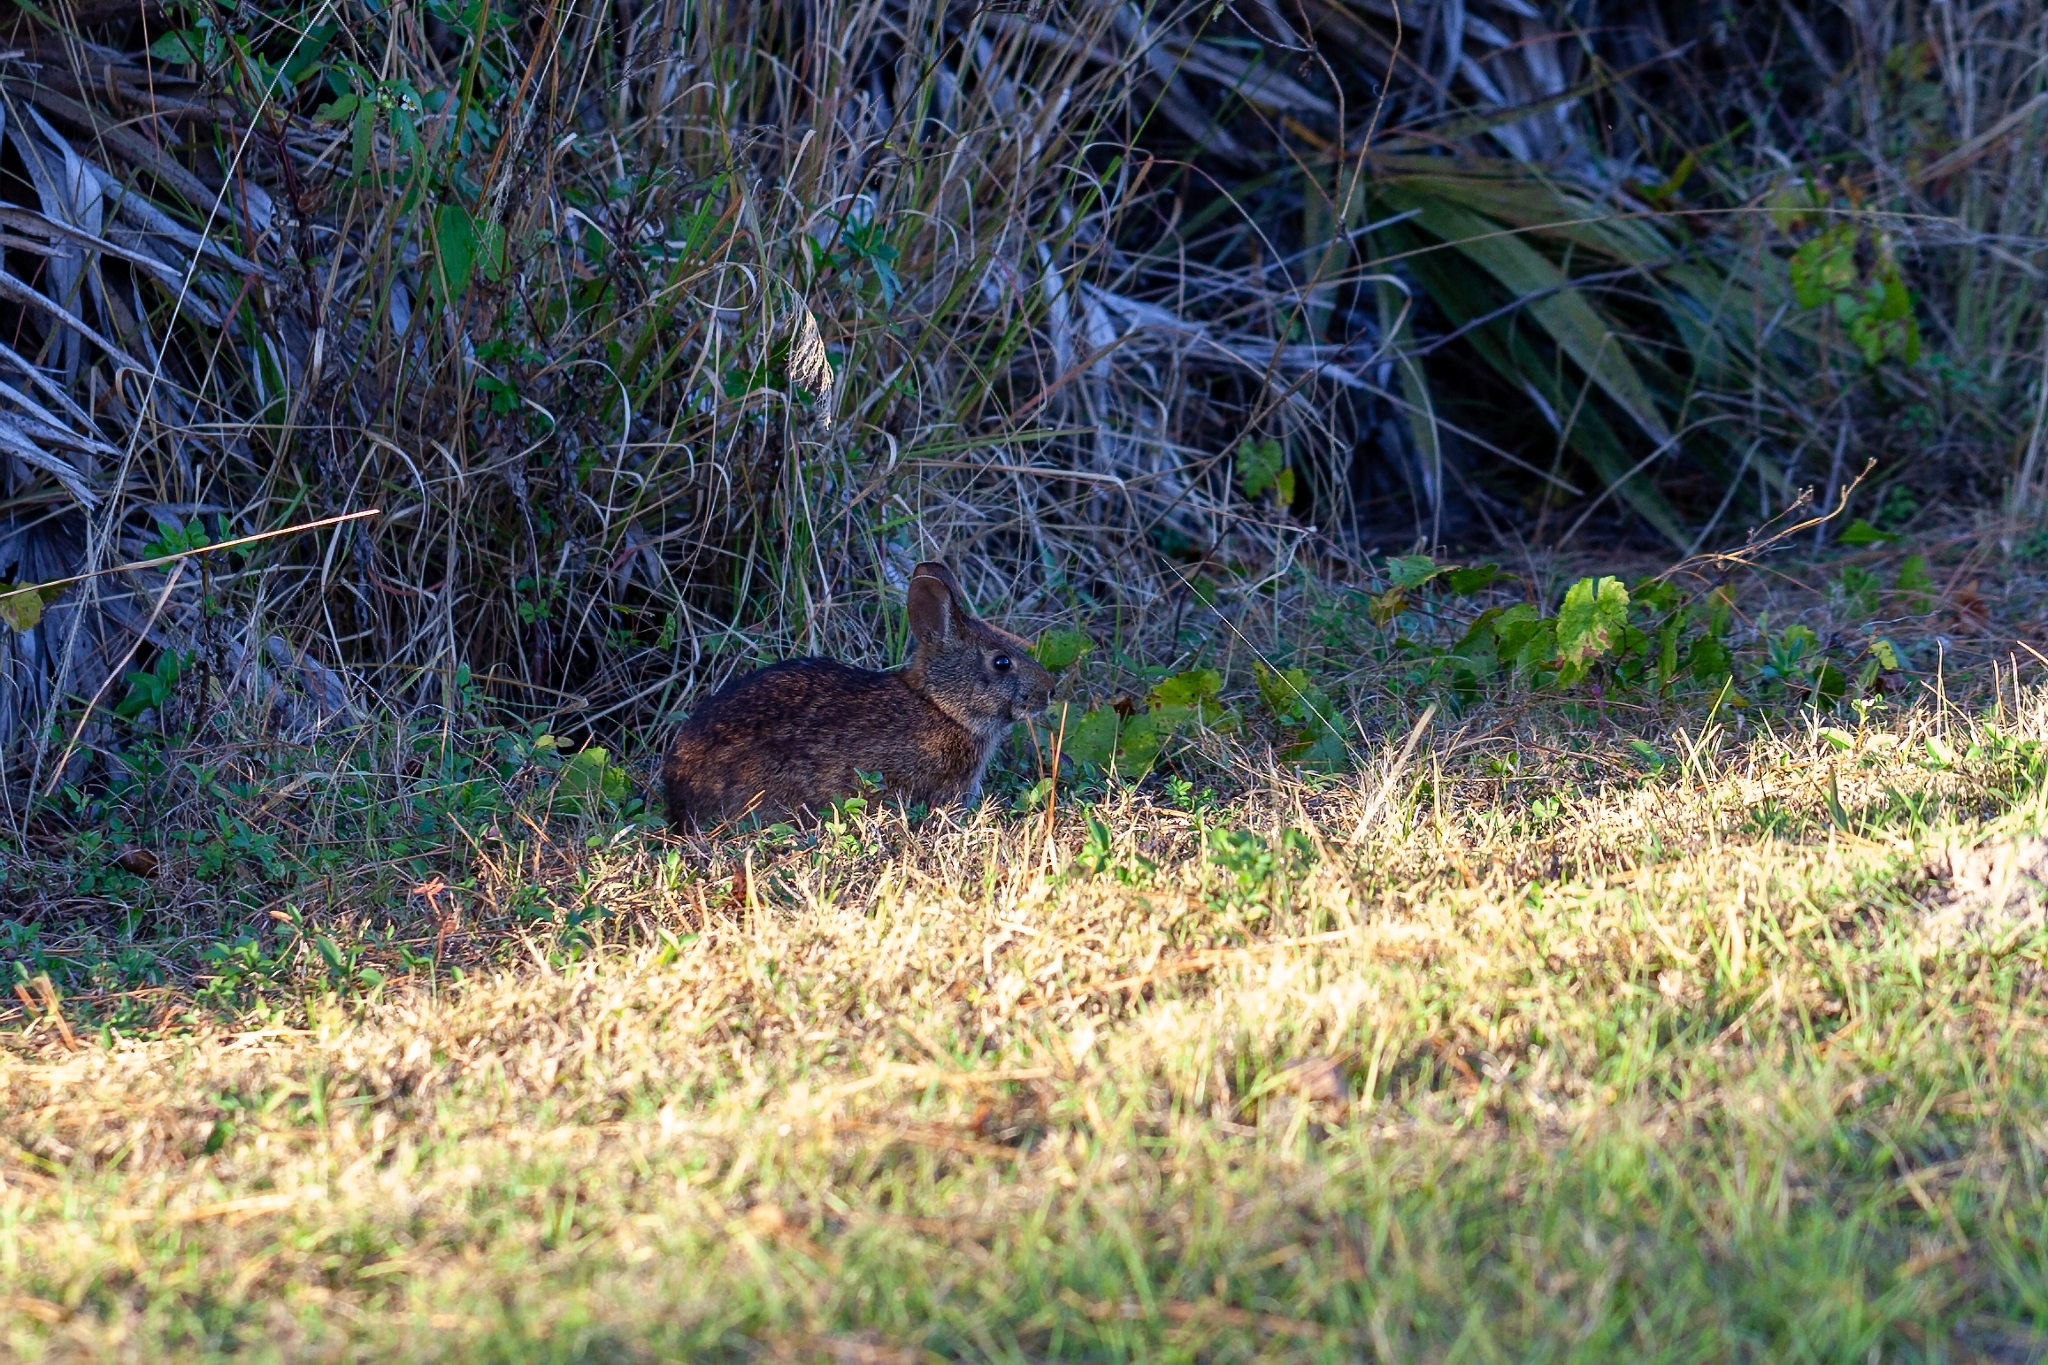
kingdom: Animalia
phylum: Chordata
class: Mammalia
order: Lagomorpha
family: Leporidae
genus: Sylvilagus
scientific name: Sylvilagus palustris
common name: Marsh rabbit
